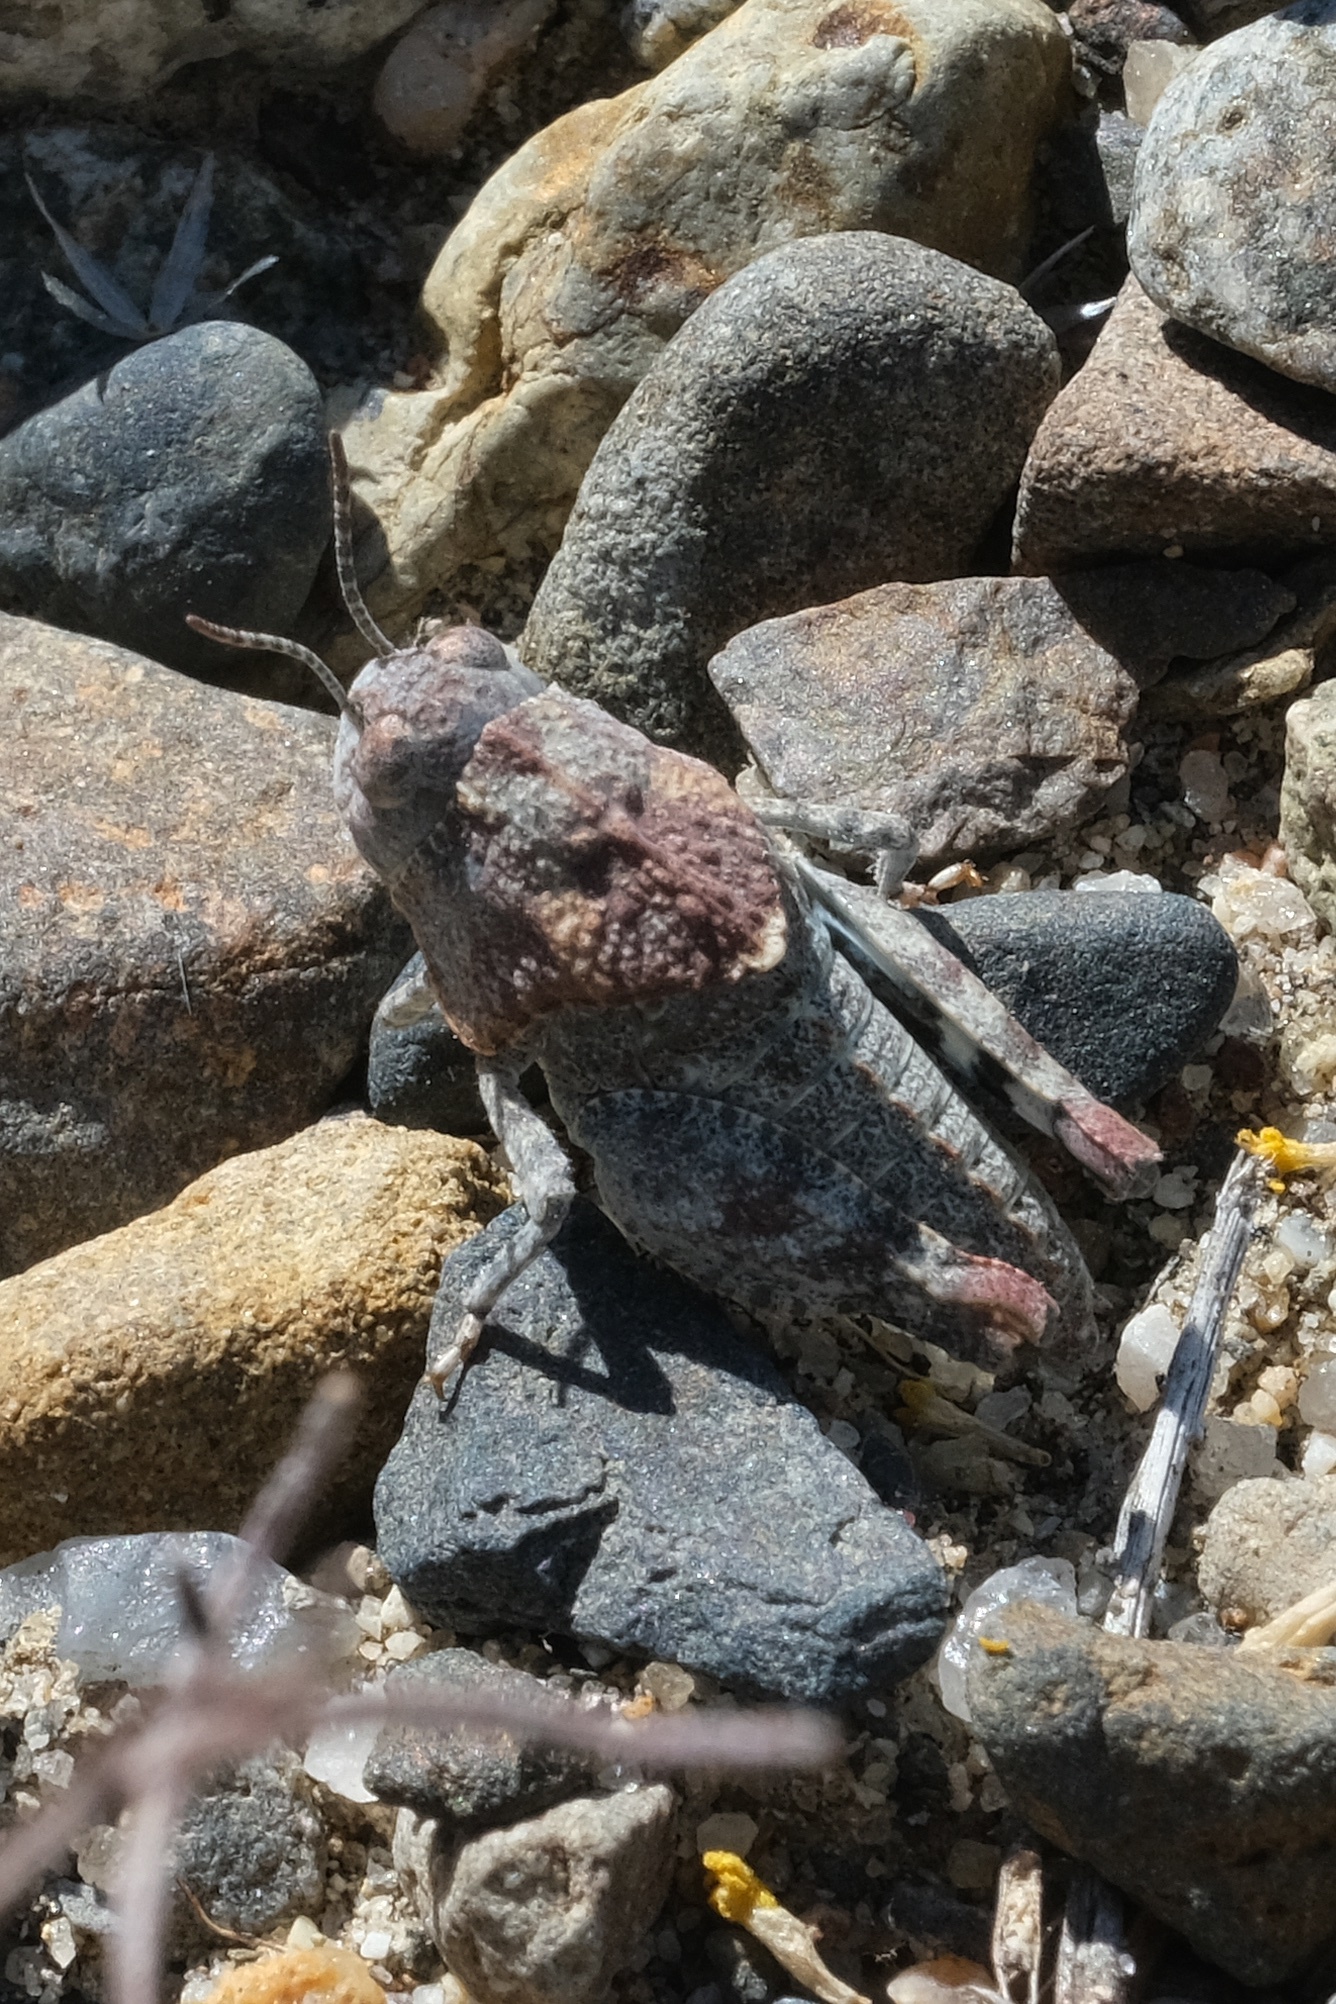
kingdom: Animalia
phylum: Arthropoda
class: Insecta
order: Orthoptera
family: Acrididae
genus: Leprus
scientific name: Leprus intermedius
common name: Saussure's blue-winged grasshopper
